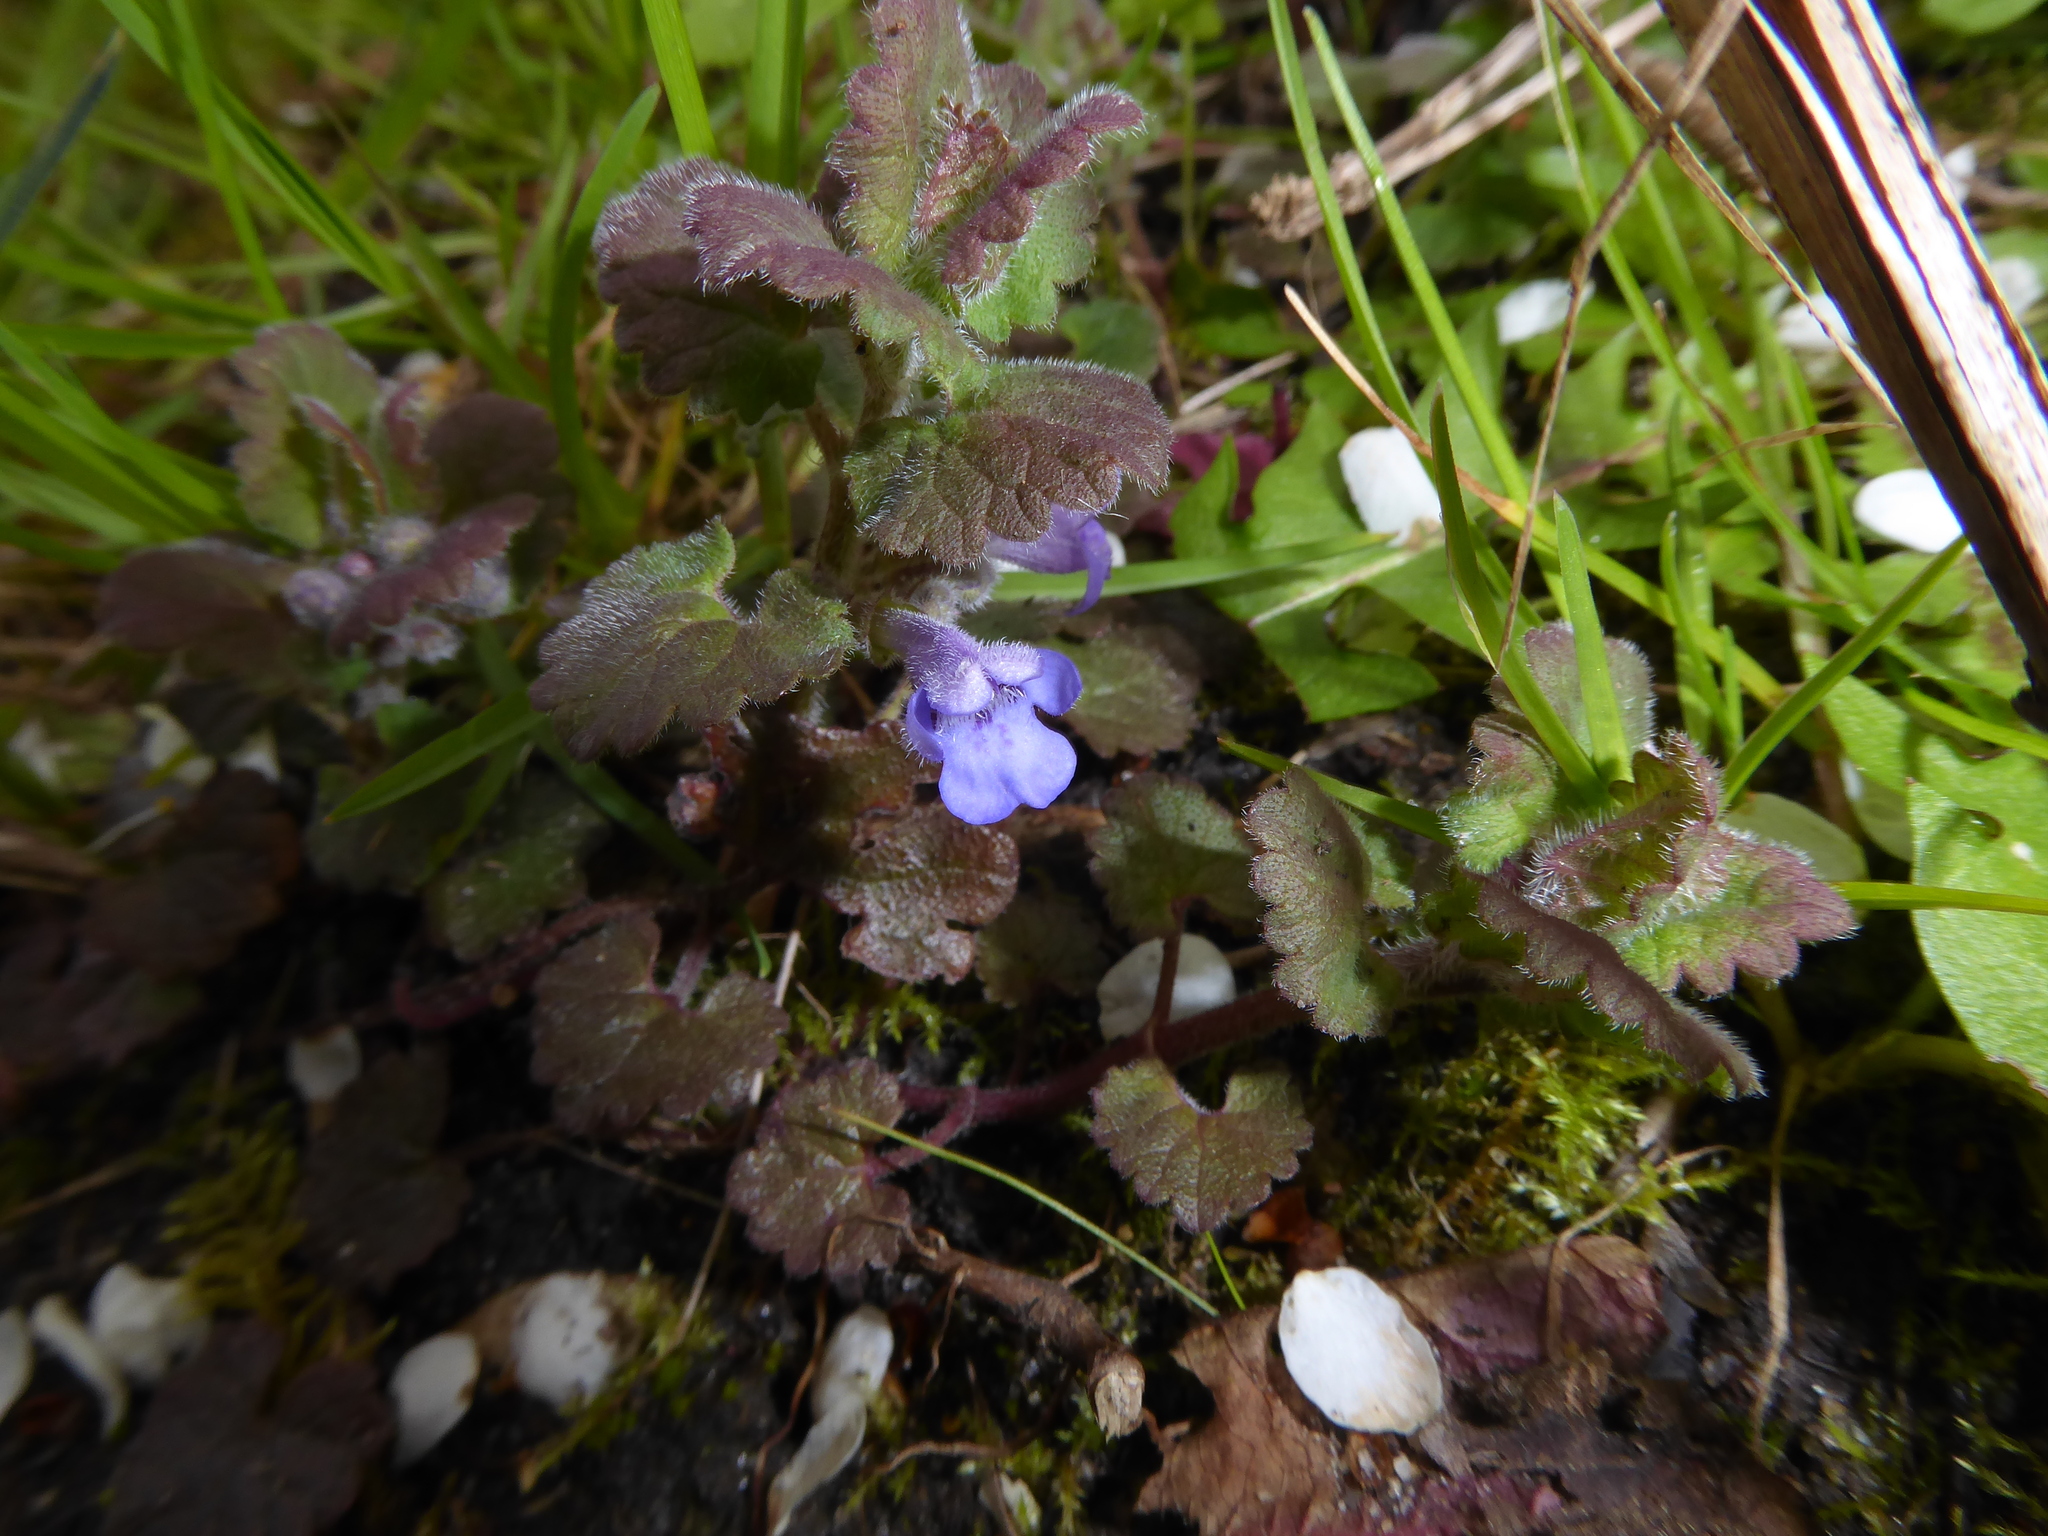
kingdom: Plantae
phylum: Tracheophyta
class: Magnoliopsida
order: Lamiales
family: Lamiaceae
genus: Glechoma
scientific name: Glechoma hederacea
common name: Ground ivy
